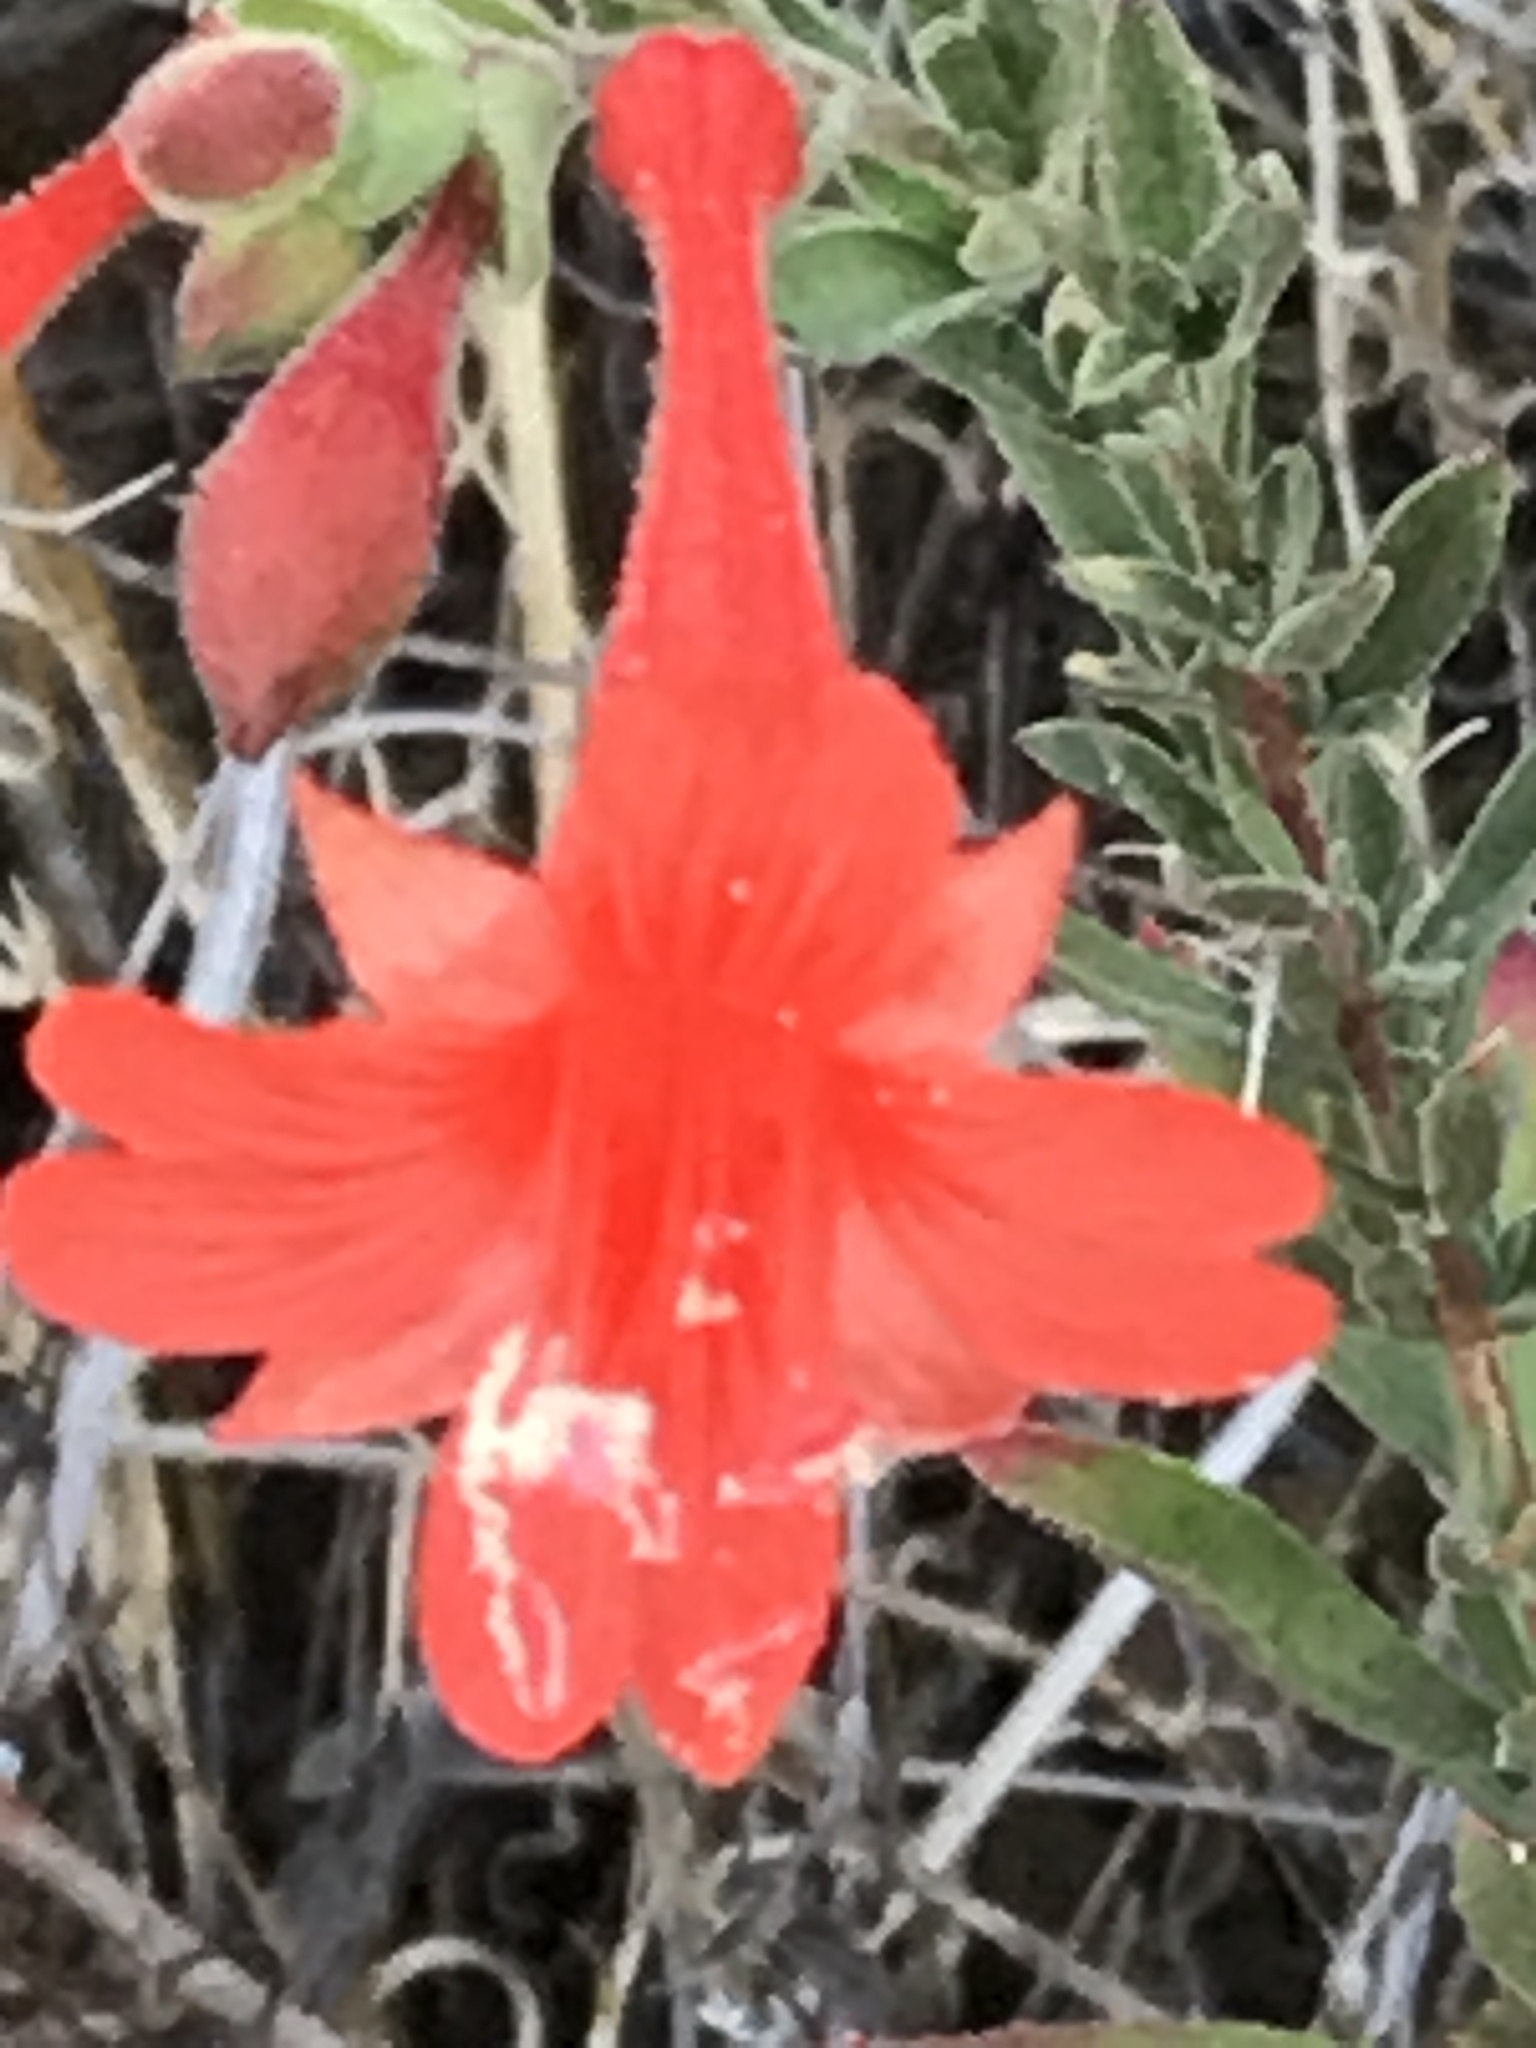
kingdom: Plantae
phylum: Tracheophyta
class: Magnoliopsida
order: Myrtales
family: Onagraceae
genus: Epilobium
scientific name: Epilobium canum
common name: California-fuchsia
